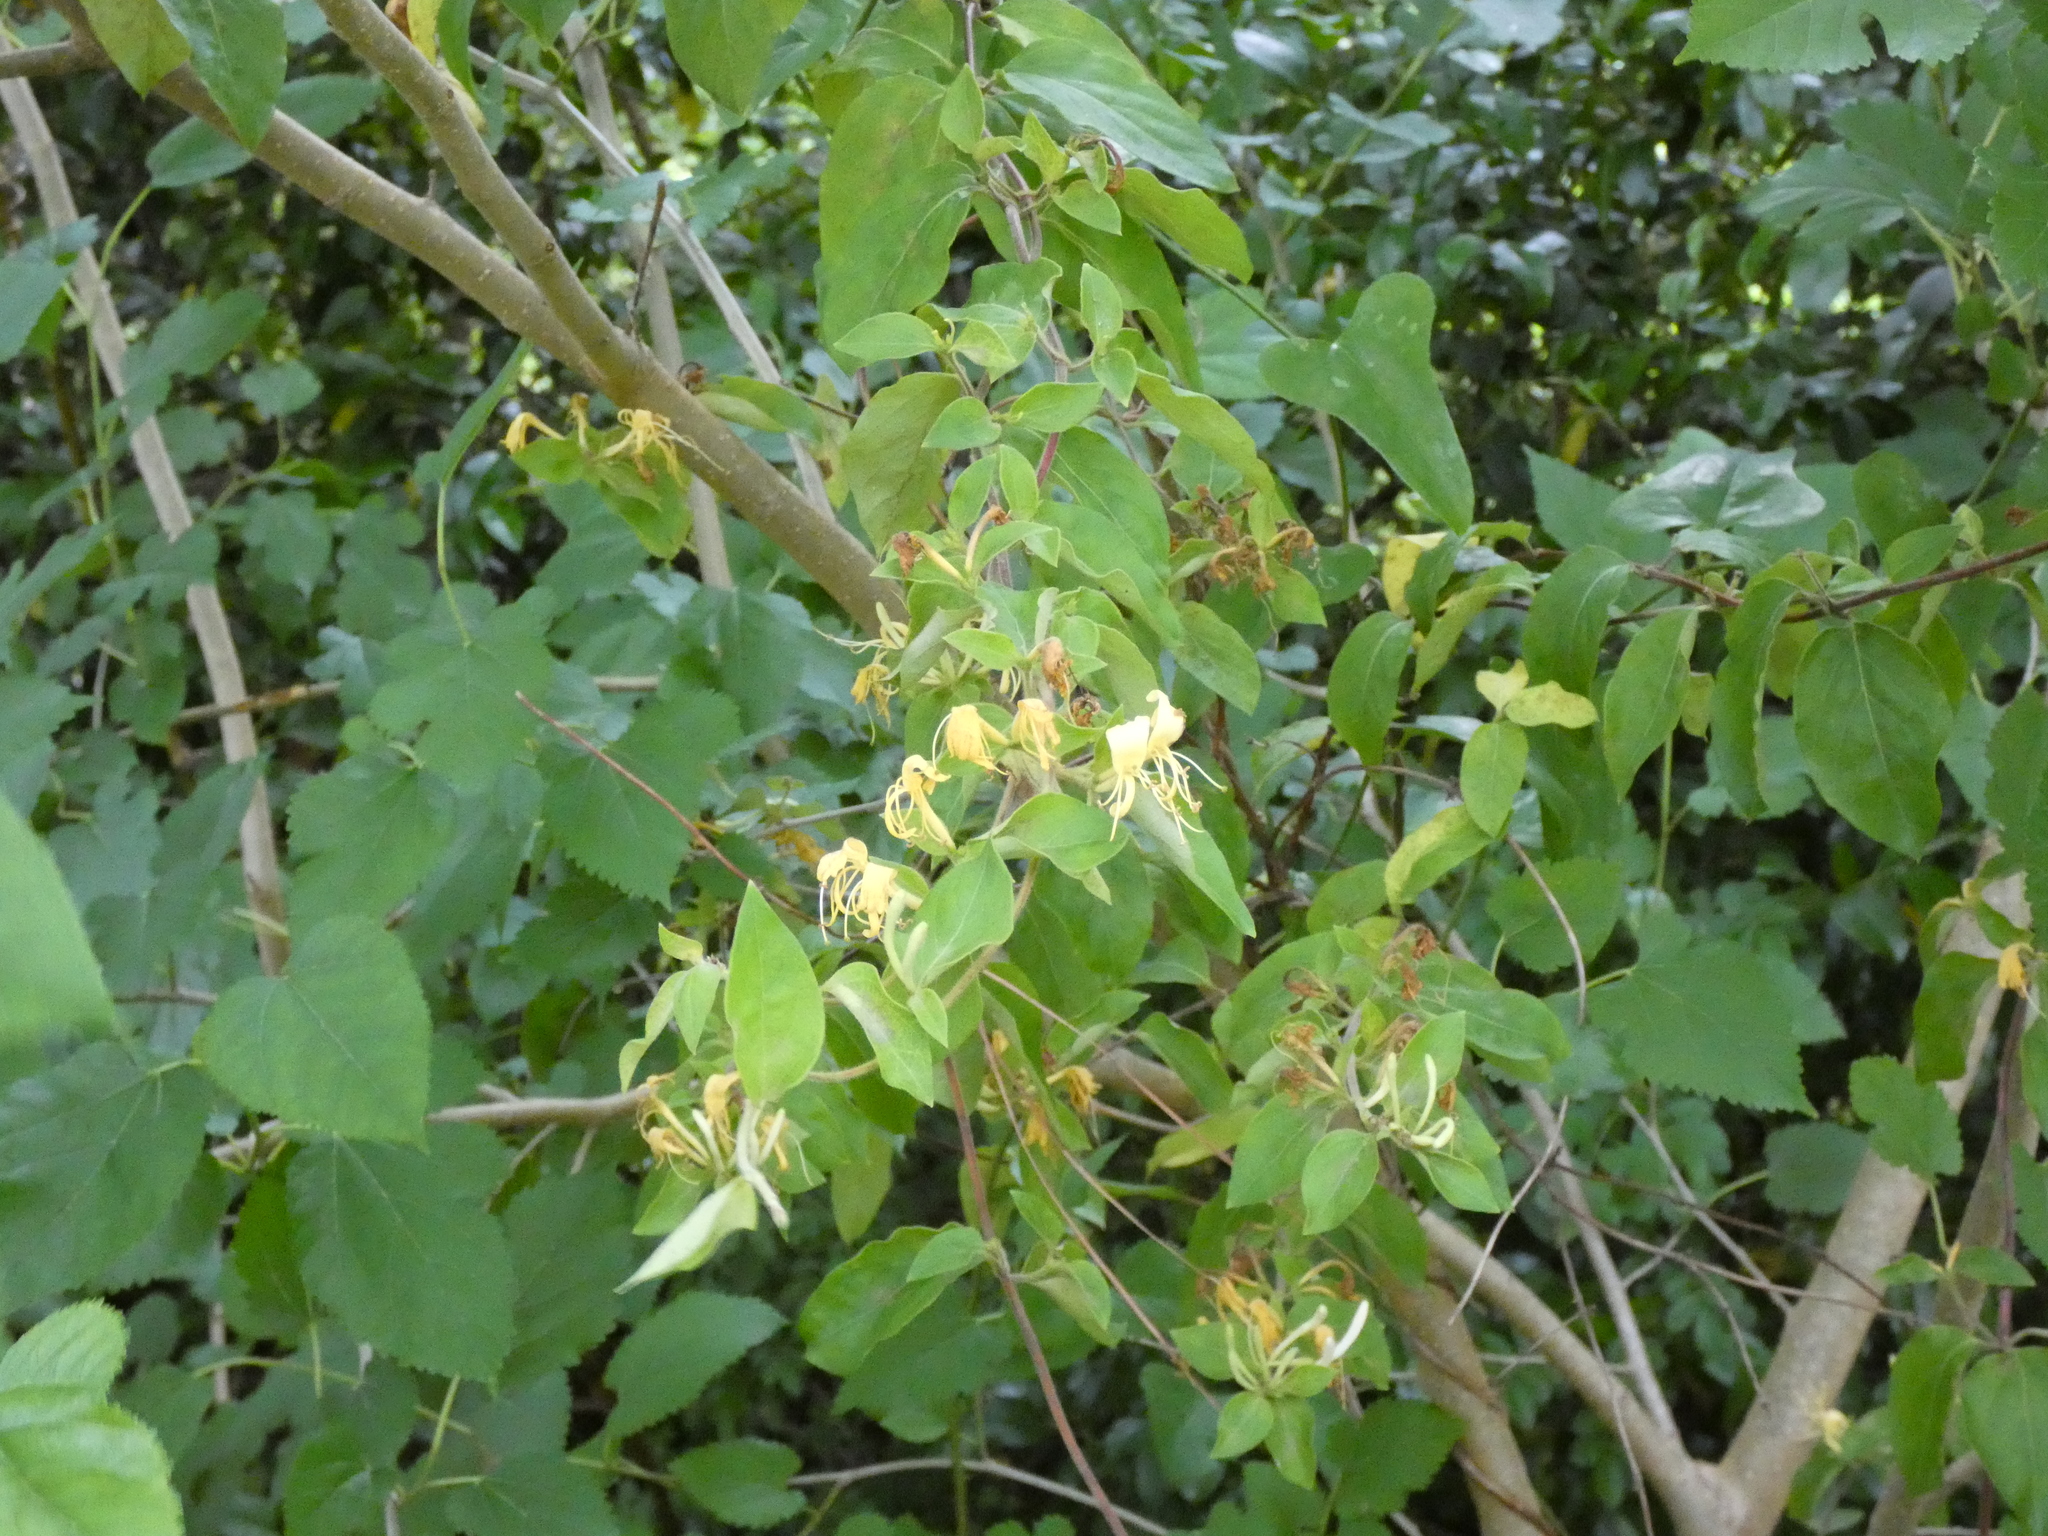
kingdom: Plantae
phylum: Tracheophyta
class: Magnoliopsida
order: Dipsacales
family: Caprifoliaceae
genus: Lonicera
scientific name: Lonicera japonica
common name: Japanese honeysuckle
